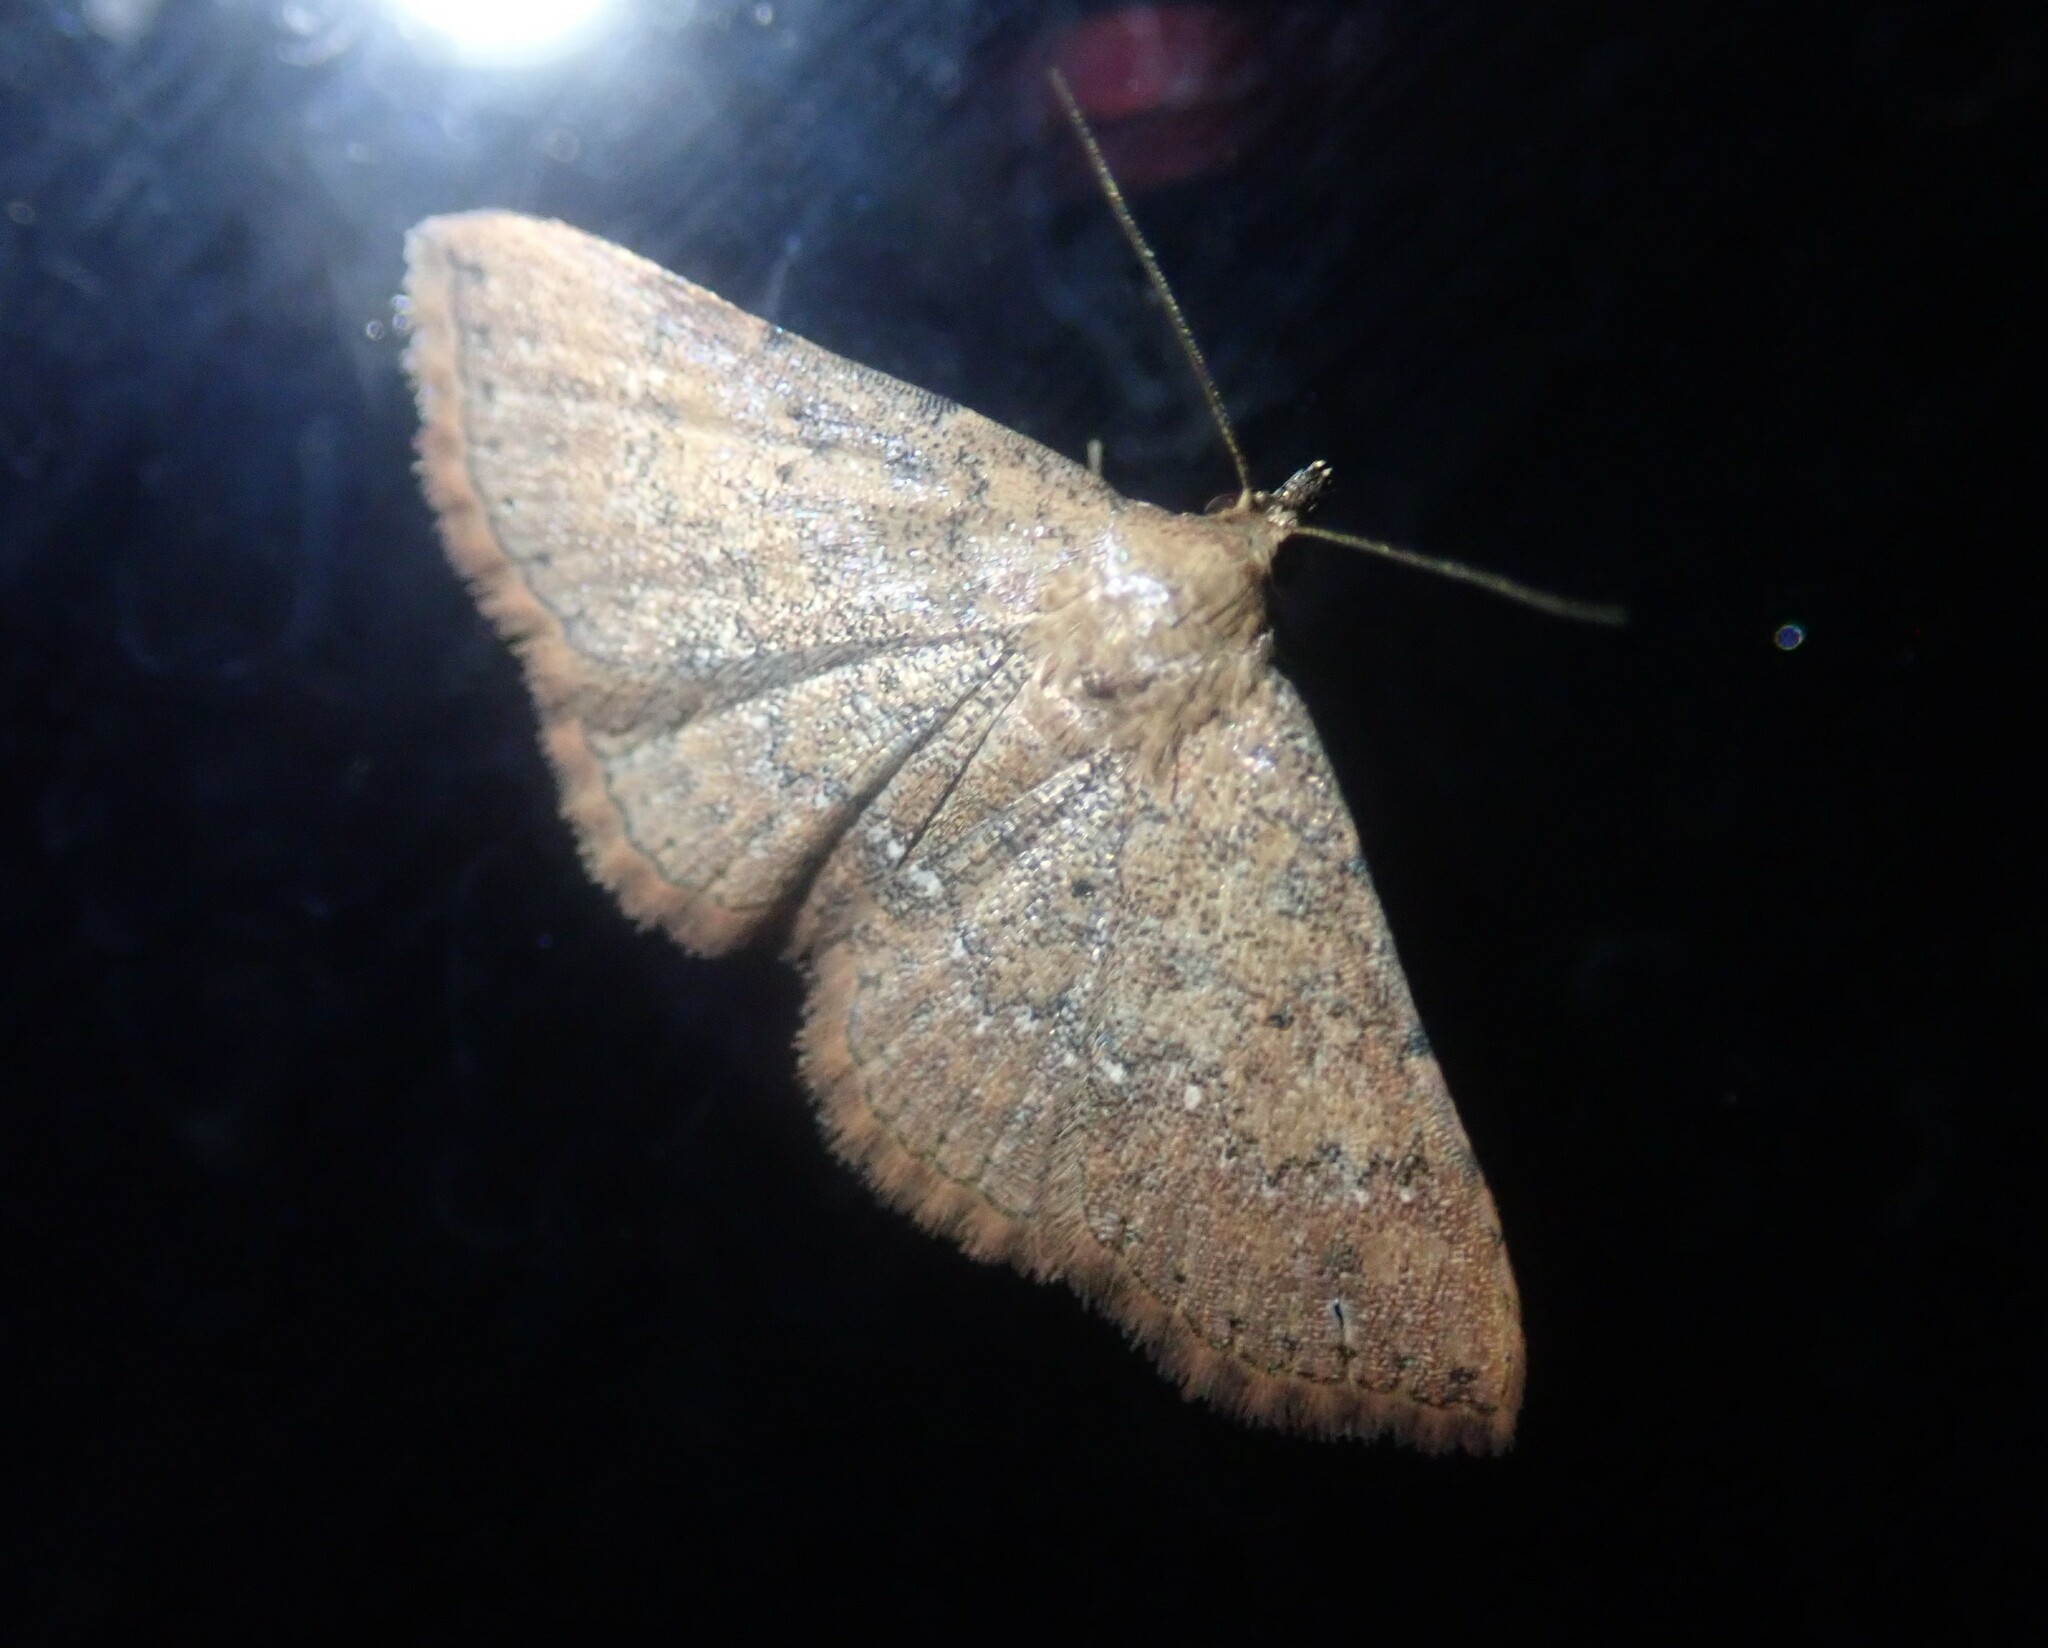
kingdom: Animalia
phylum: Arthropoda
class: Insecta
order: Lepidoptera
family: Noctuidae
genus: Cerynea
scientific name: Cerynea thermesialis
